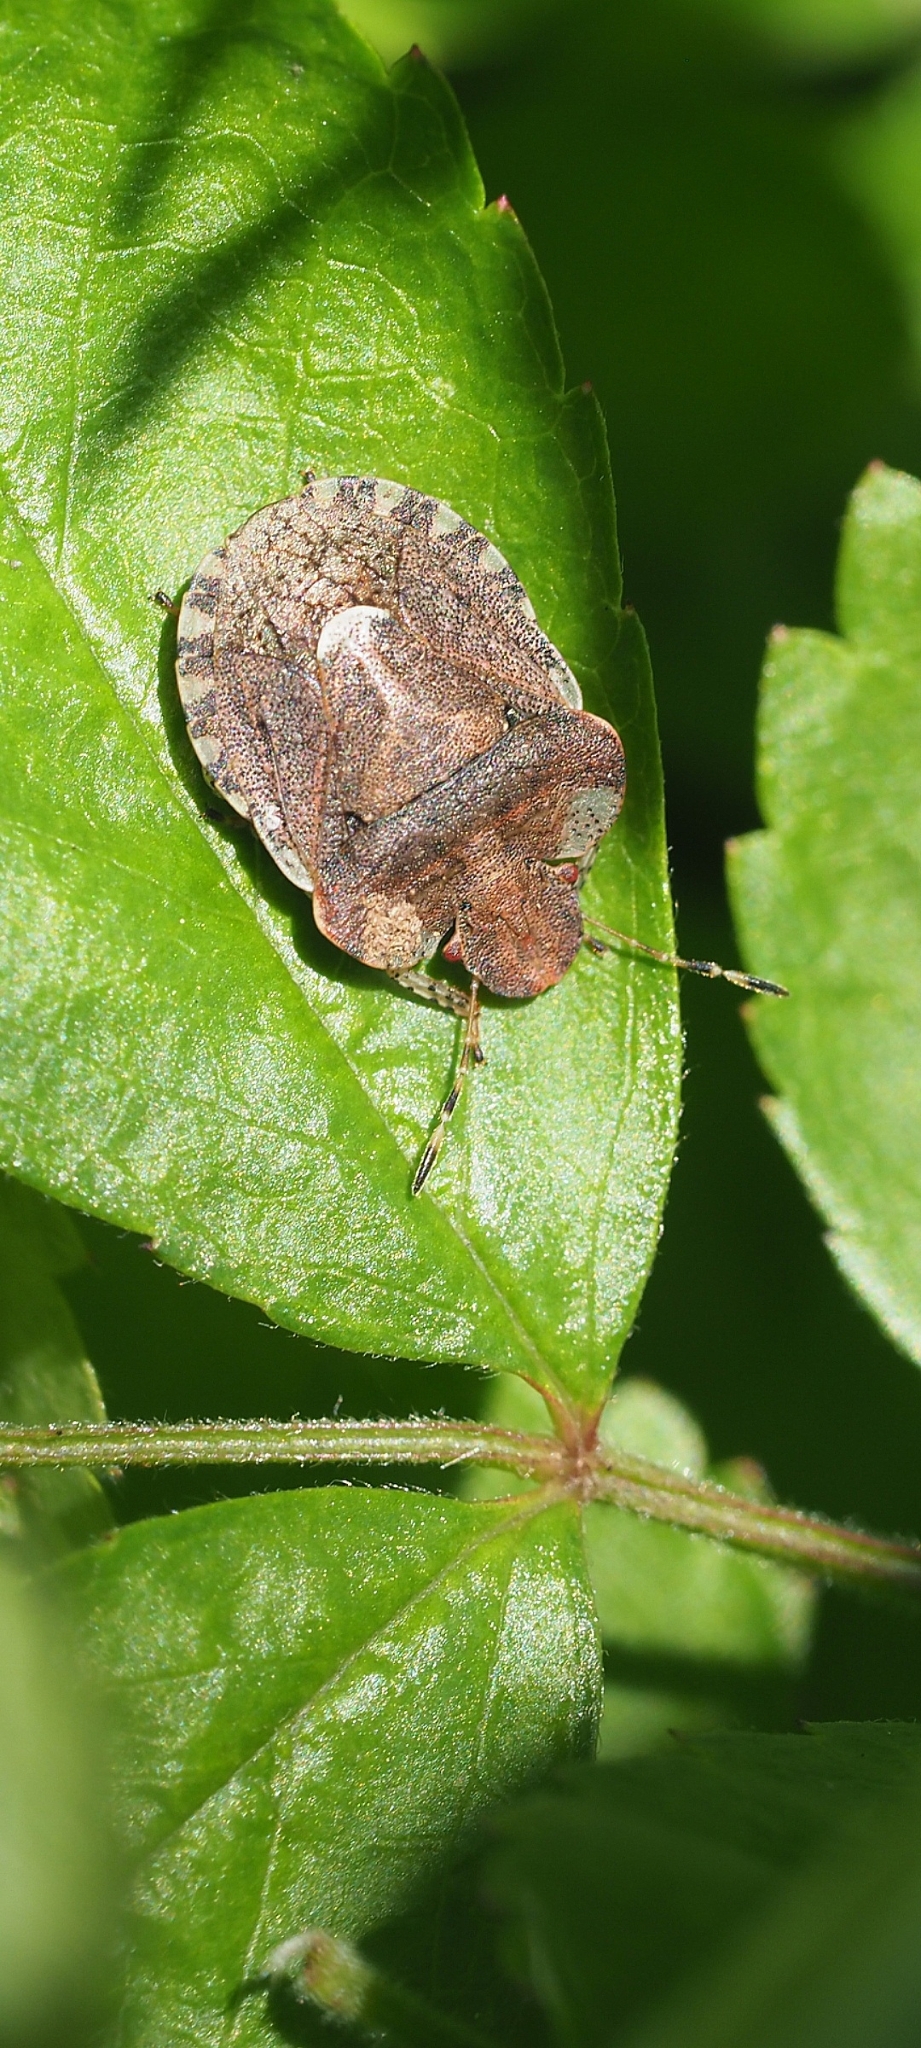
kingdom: Animalia
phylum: Arthropoda
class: Insecta
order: Hemiptera
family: Pentatomidae
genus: Dyroderes
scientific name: Dyroderes umbraculatus
